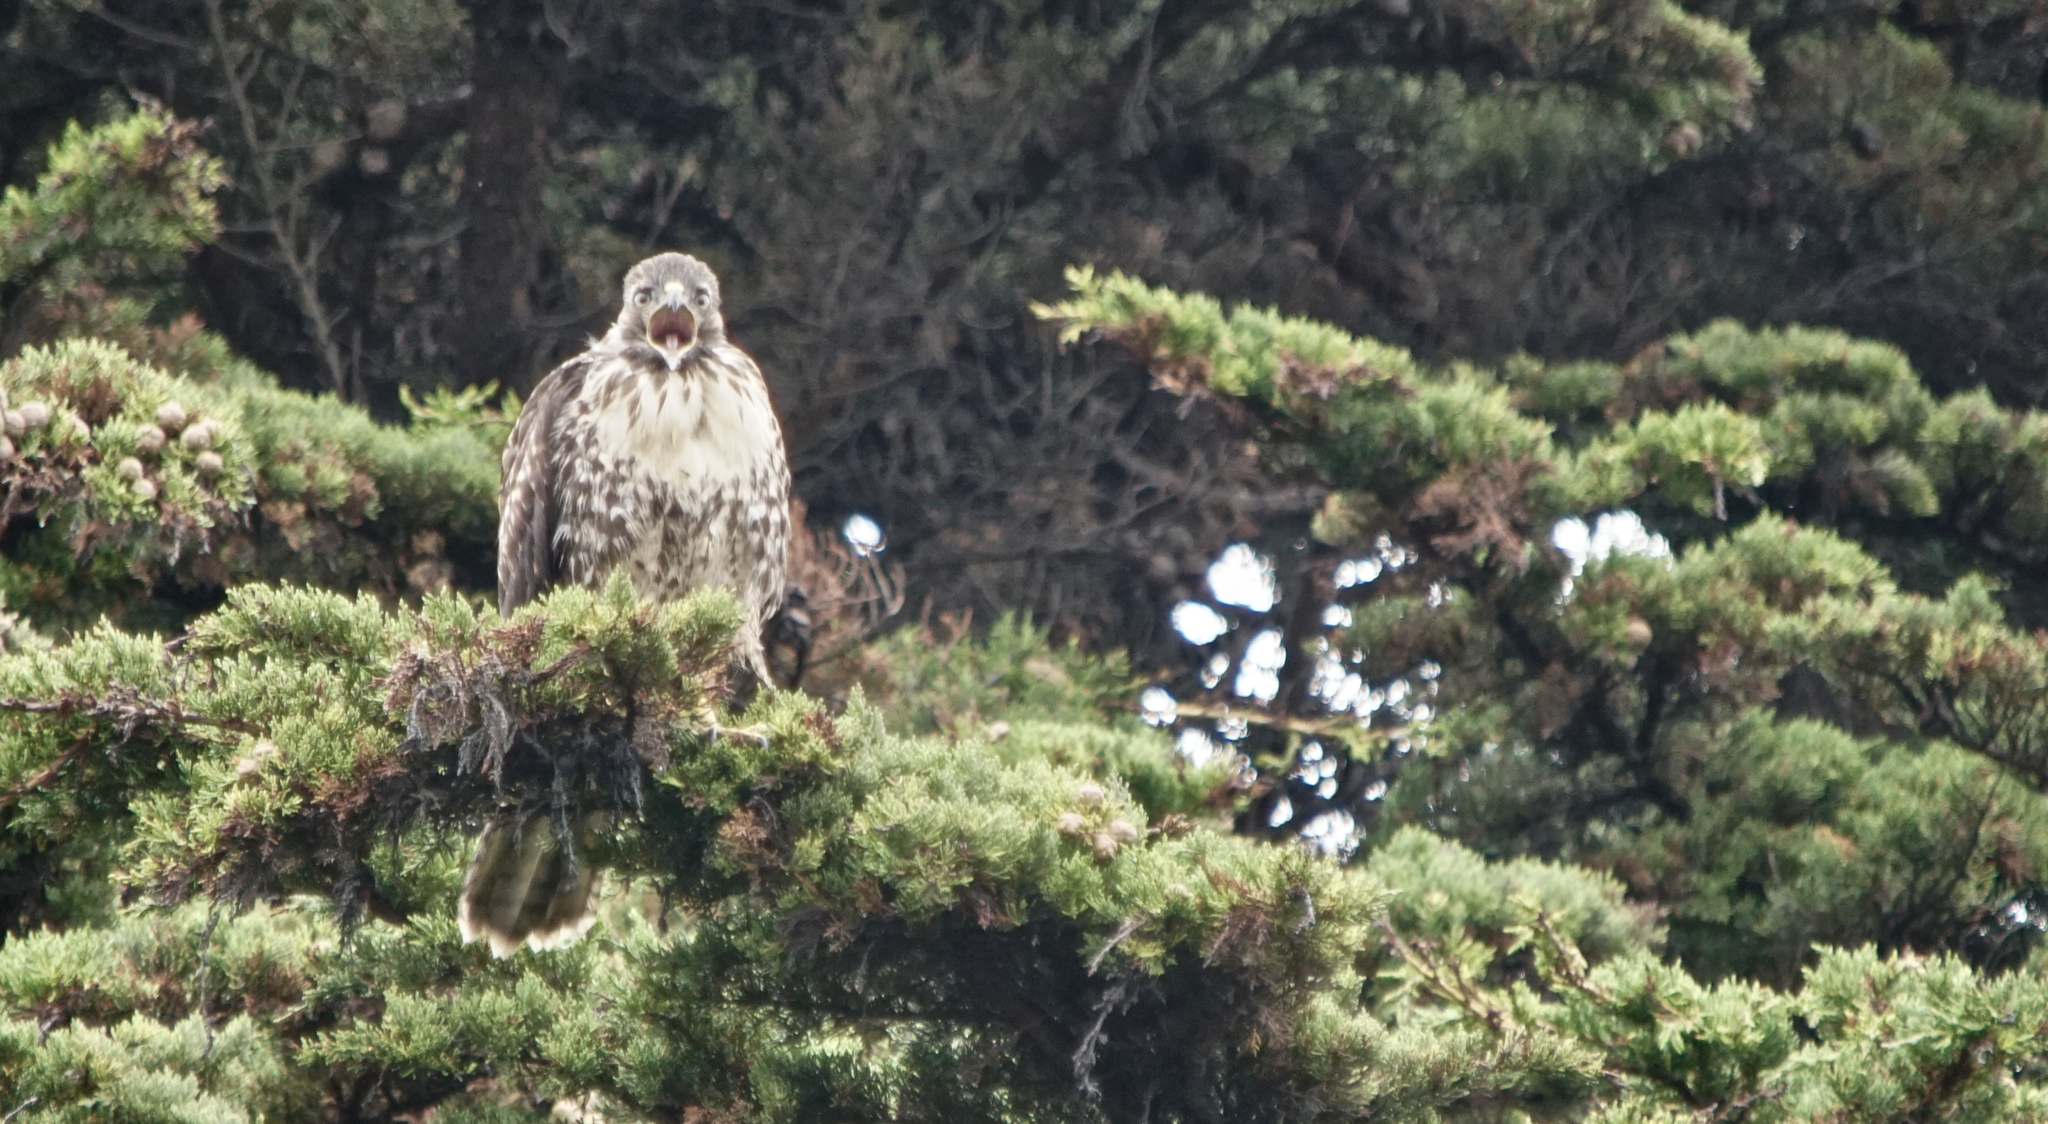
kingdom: Animalia
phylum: Chordata
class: Aves
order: Accipitriformes
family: Accipitridae
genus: Buteo
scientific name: Buteo jamaicensis
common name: Red-tailed hawk
